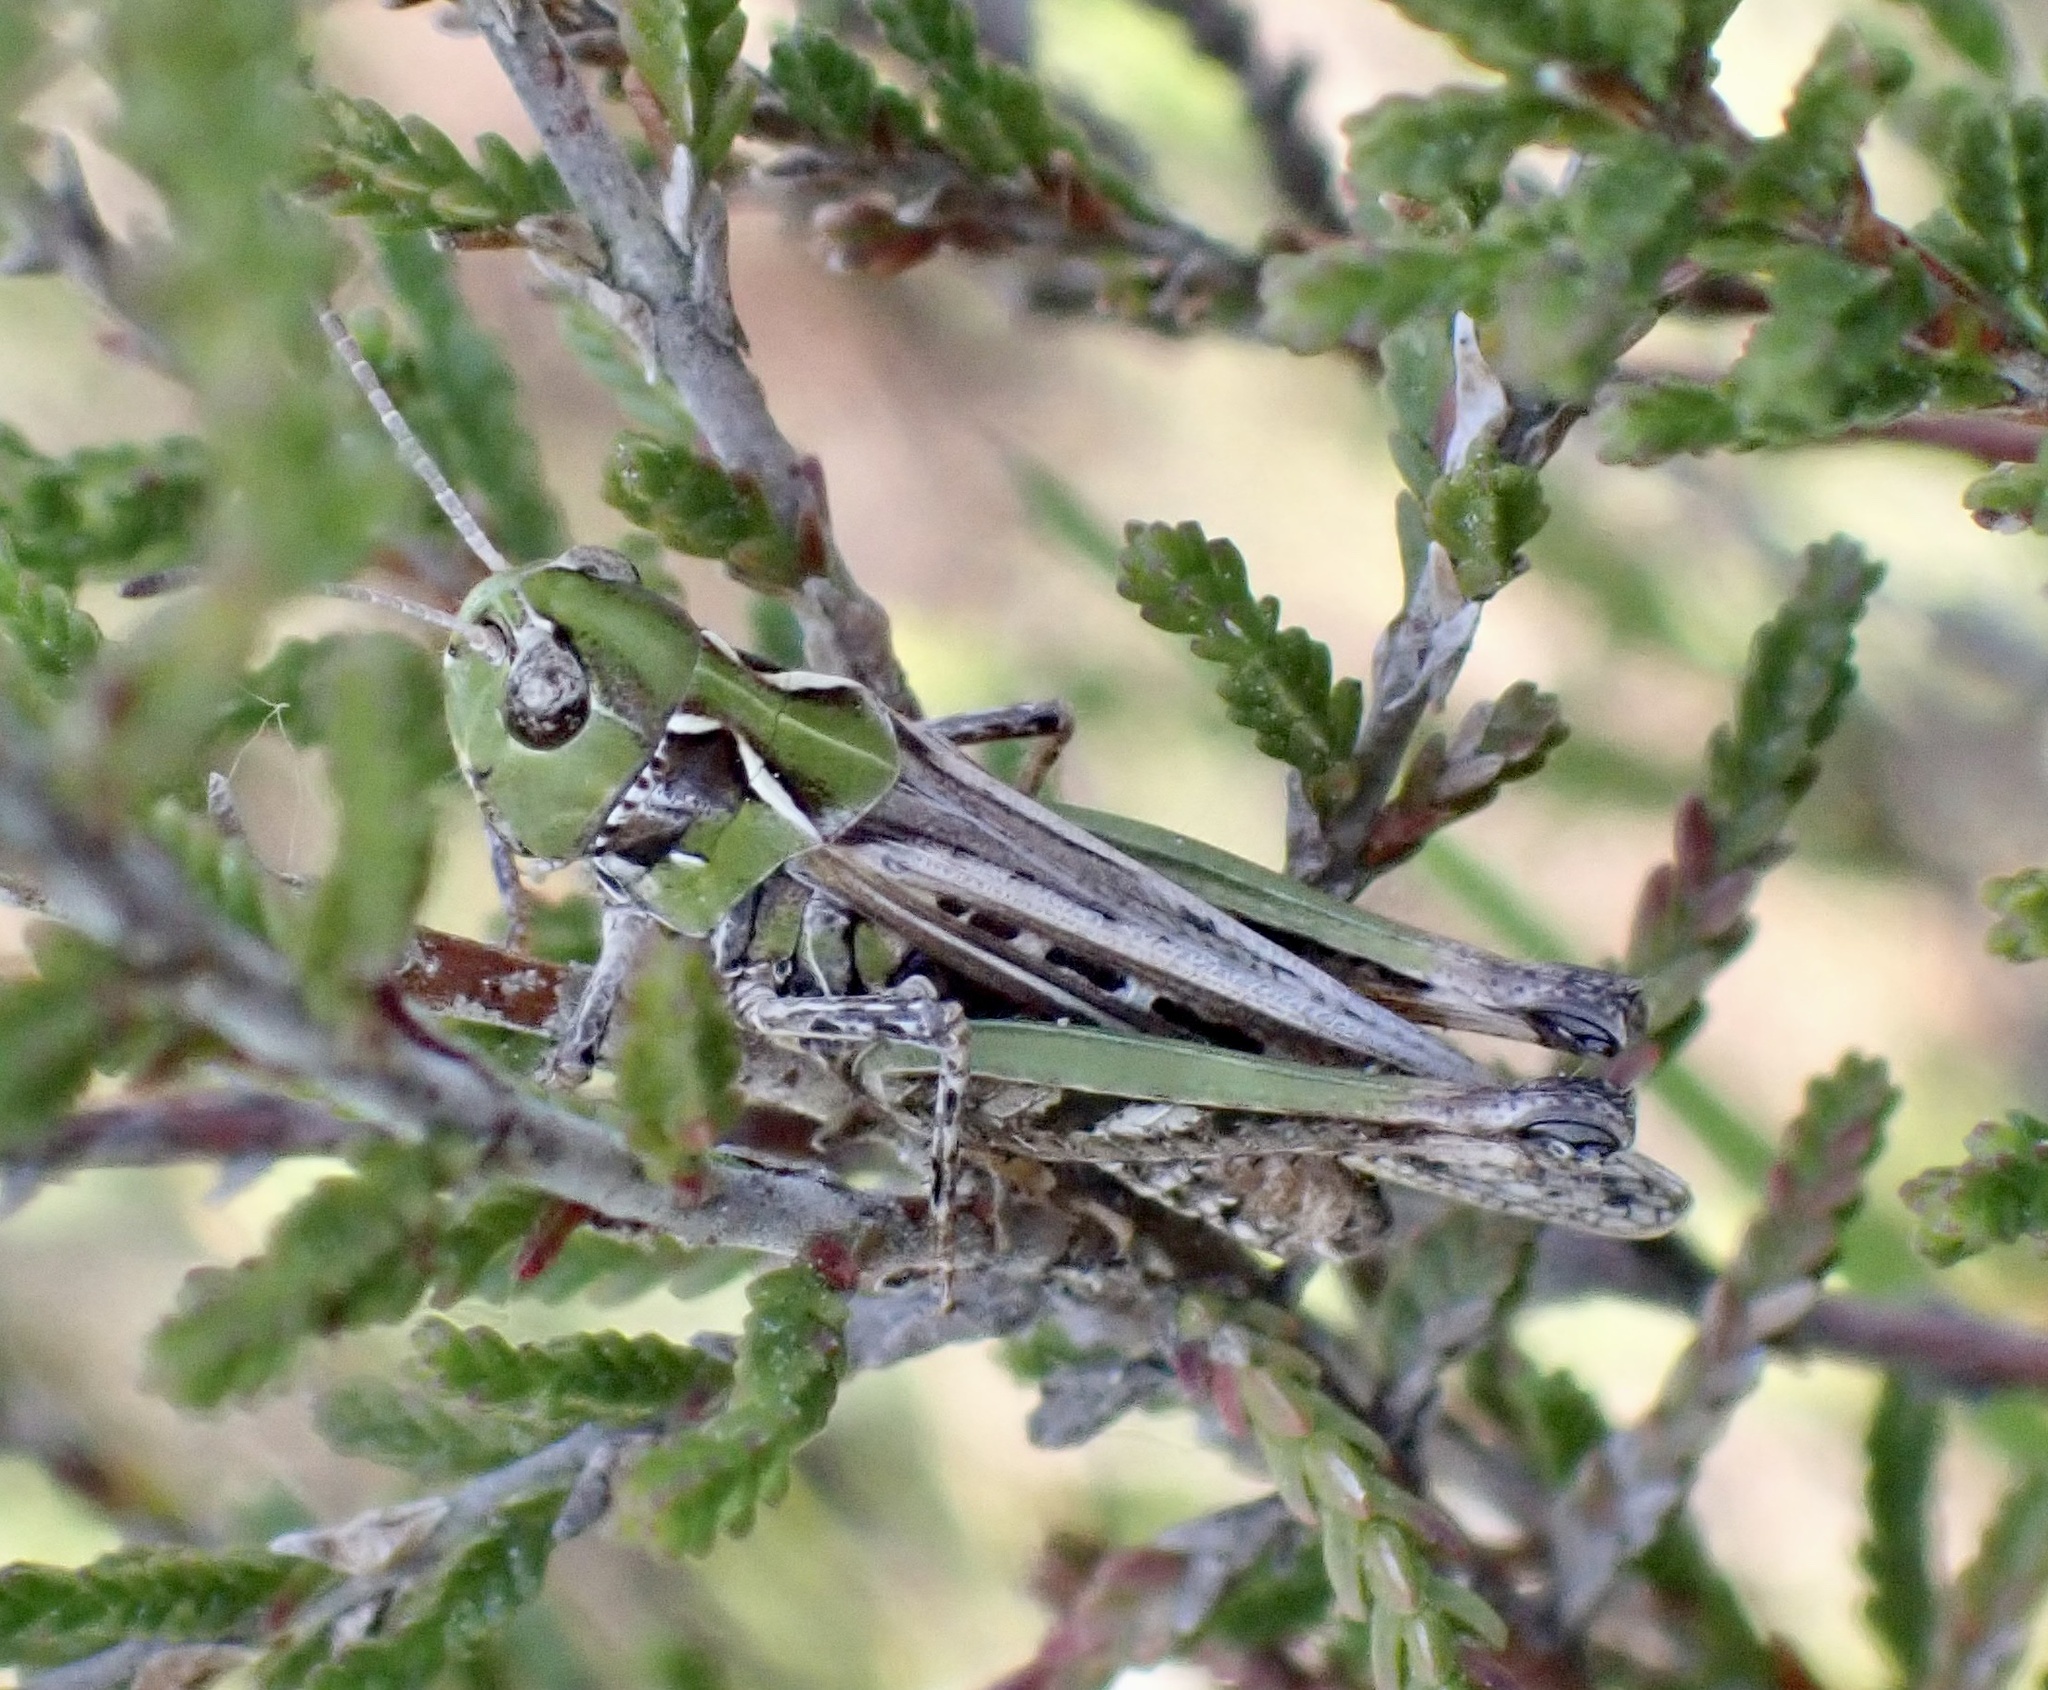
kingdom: Animalia
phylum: Arthropoda
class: Insecta
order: Orthoptera
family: Acrididae
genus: Myrmeleotettix
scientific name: Myrmeleotettix maculatus
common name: Mottled grasshopper
